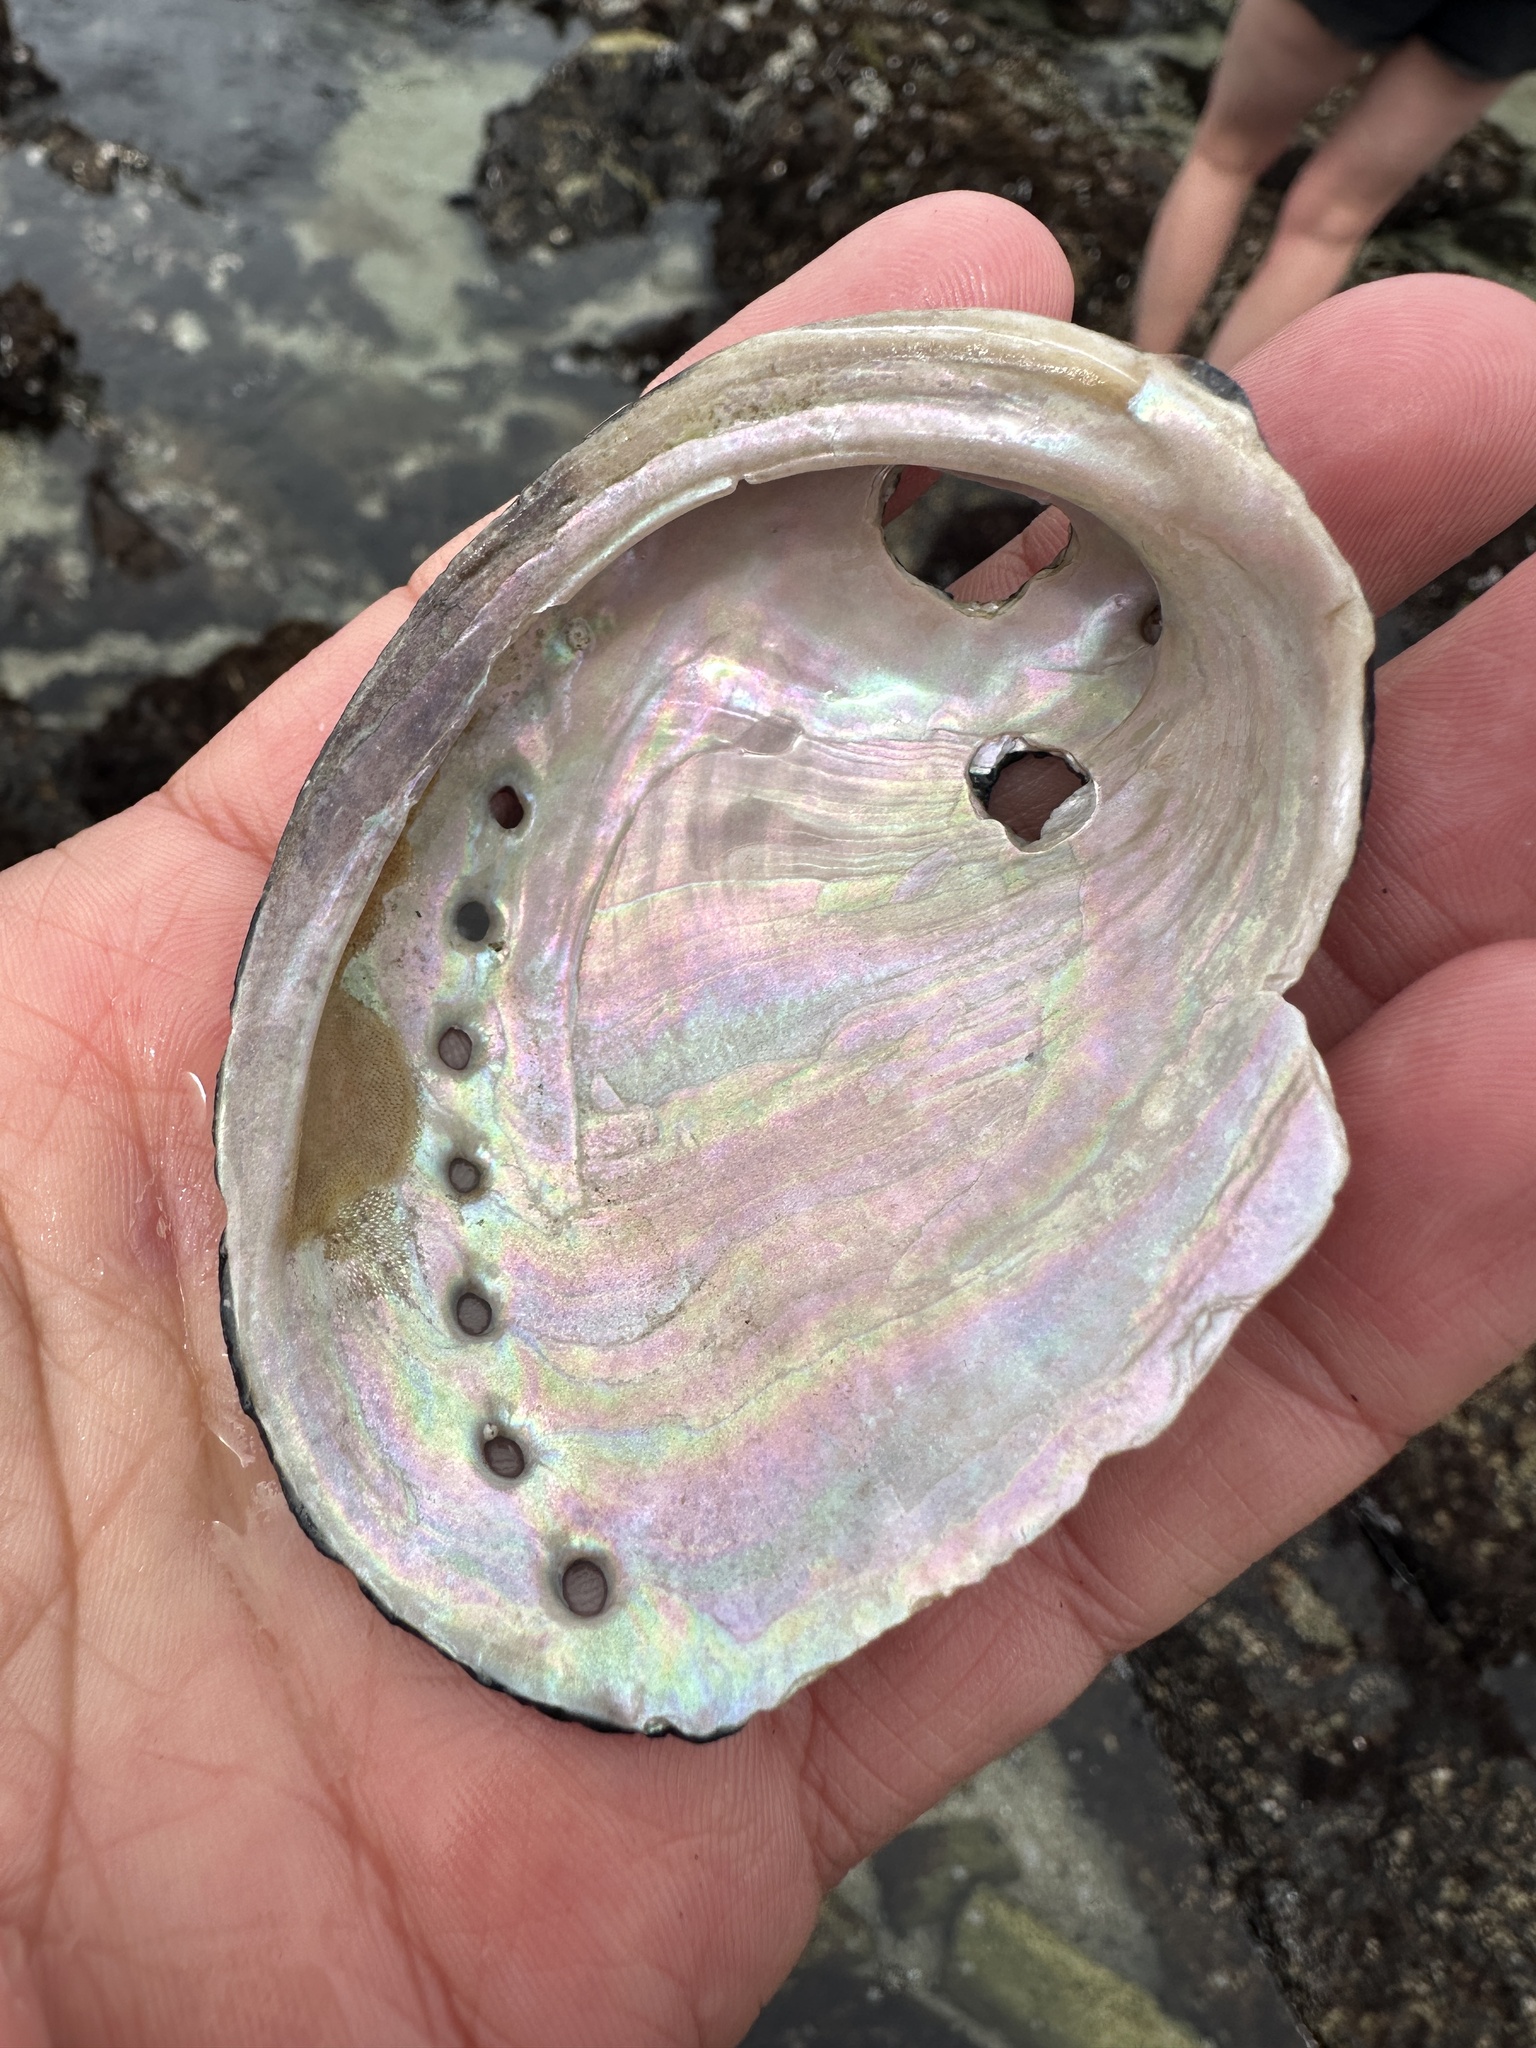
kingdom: Animalia
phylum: Mollusca
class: Gastropoda
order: Lepetellida
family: Haliotidae
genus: Haliotis
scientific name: Haliotis cracherodii
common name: Black abalone
